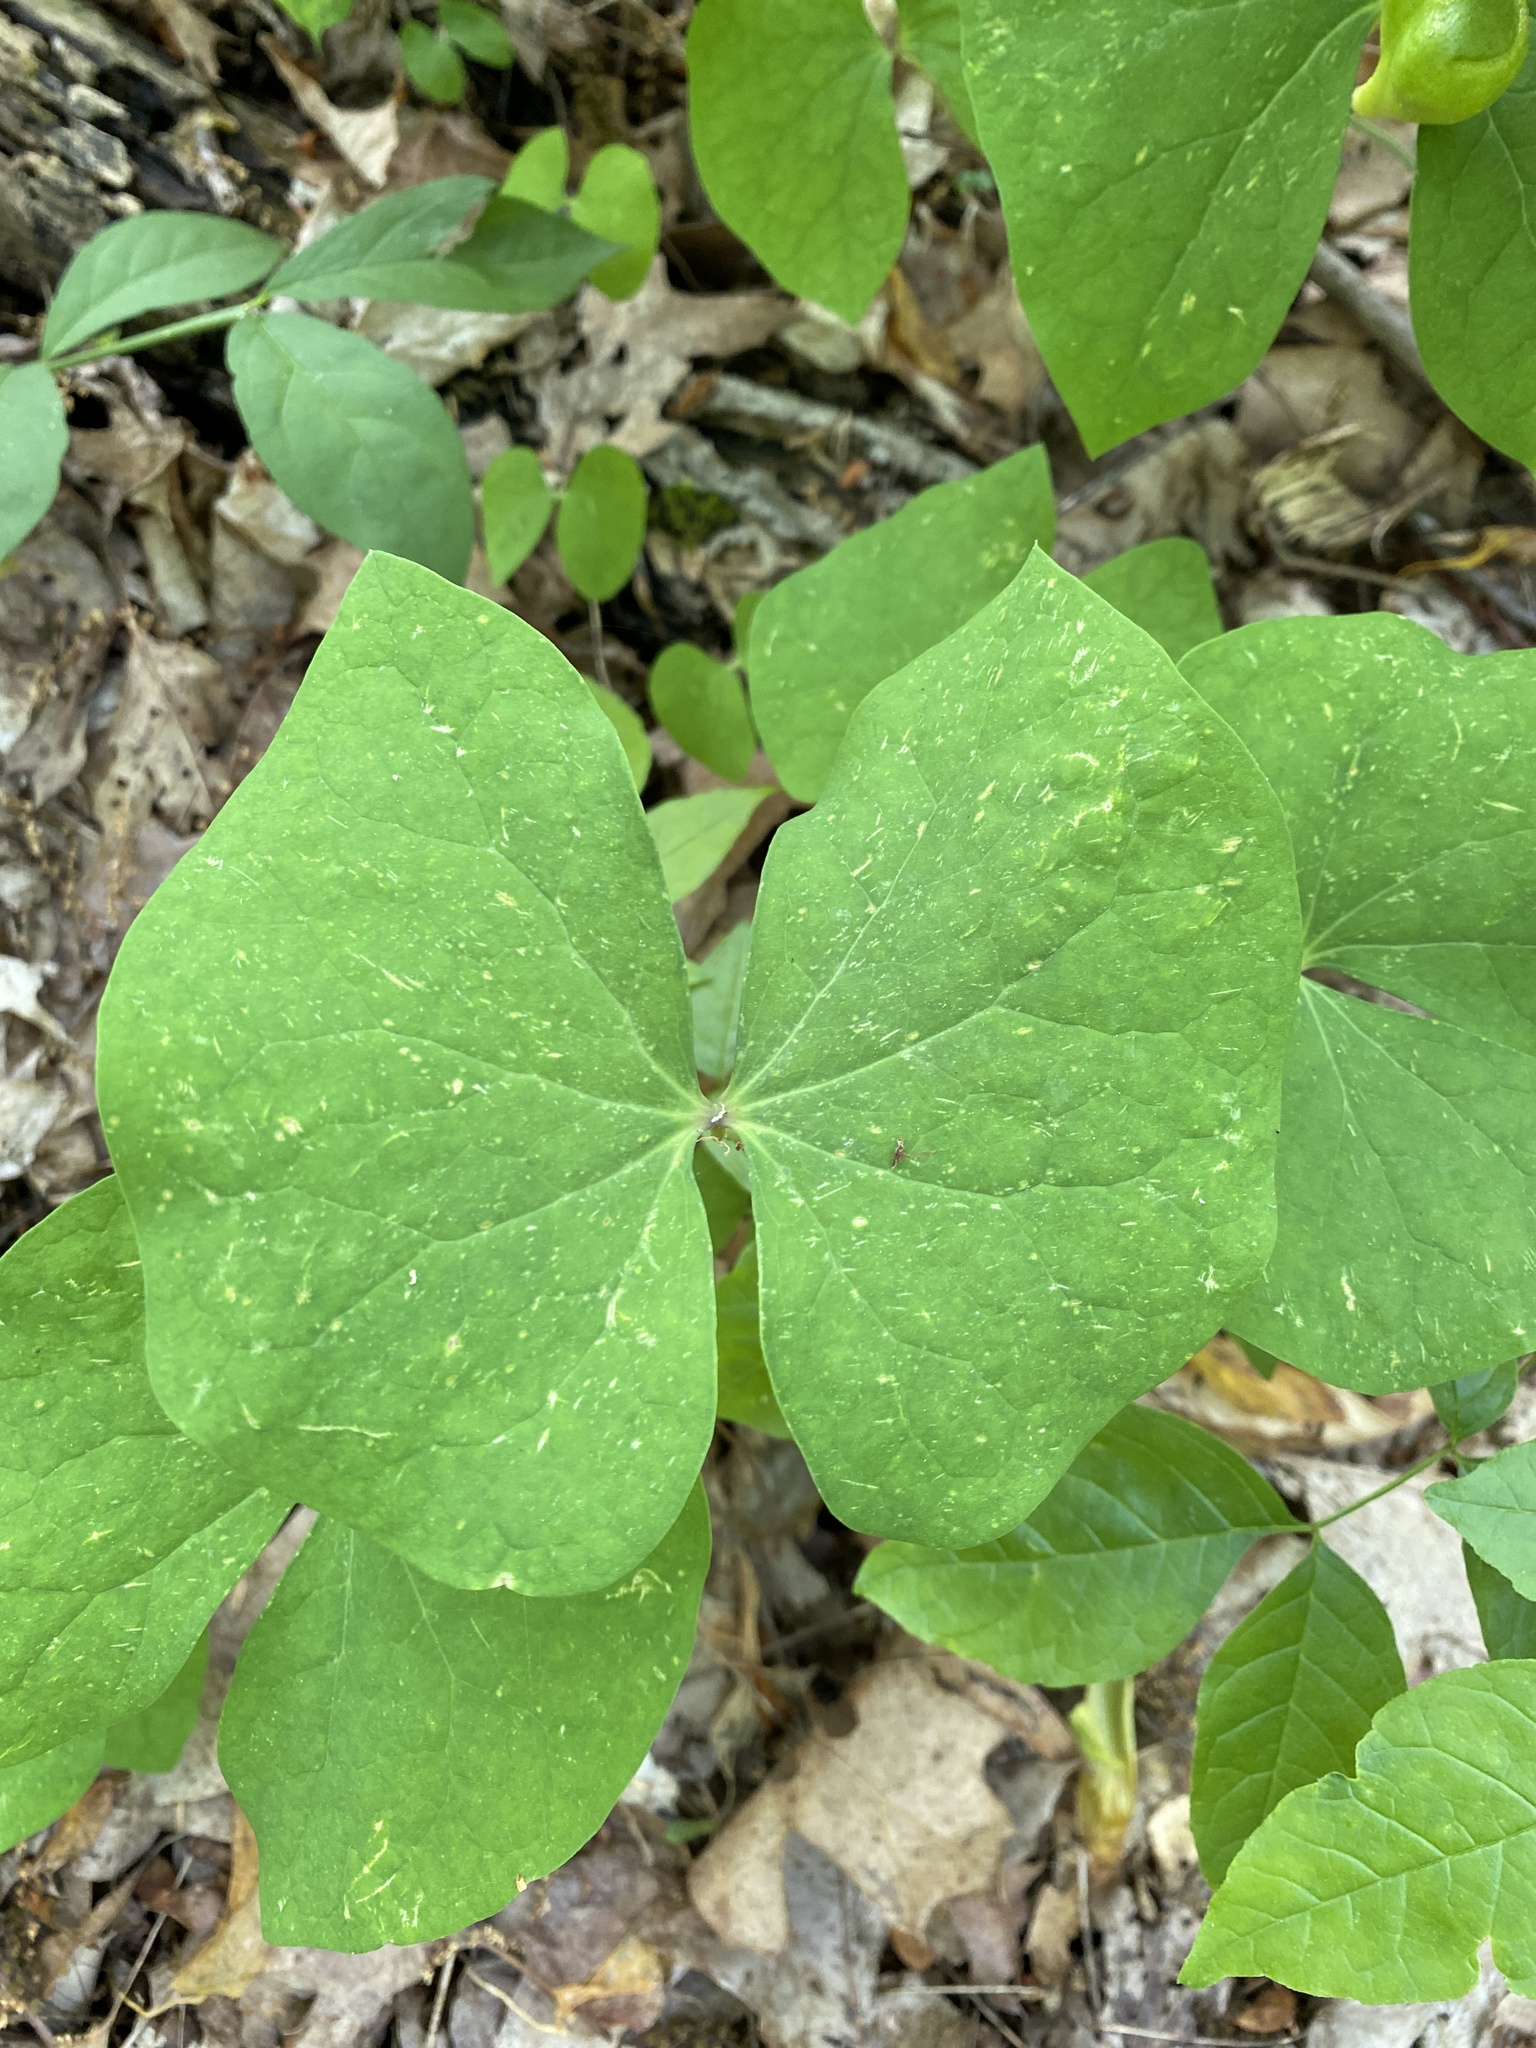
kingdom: Plantae
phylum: Tracheophyta
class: Magnoliopsida
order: Ranunculales
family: Berberidaceae
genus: Jeffersonia
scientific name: Jeffersonia diphylla
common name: Rheumatism-root
